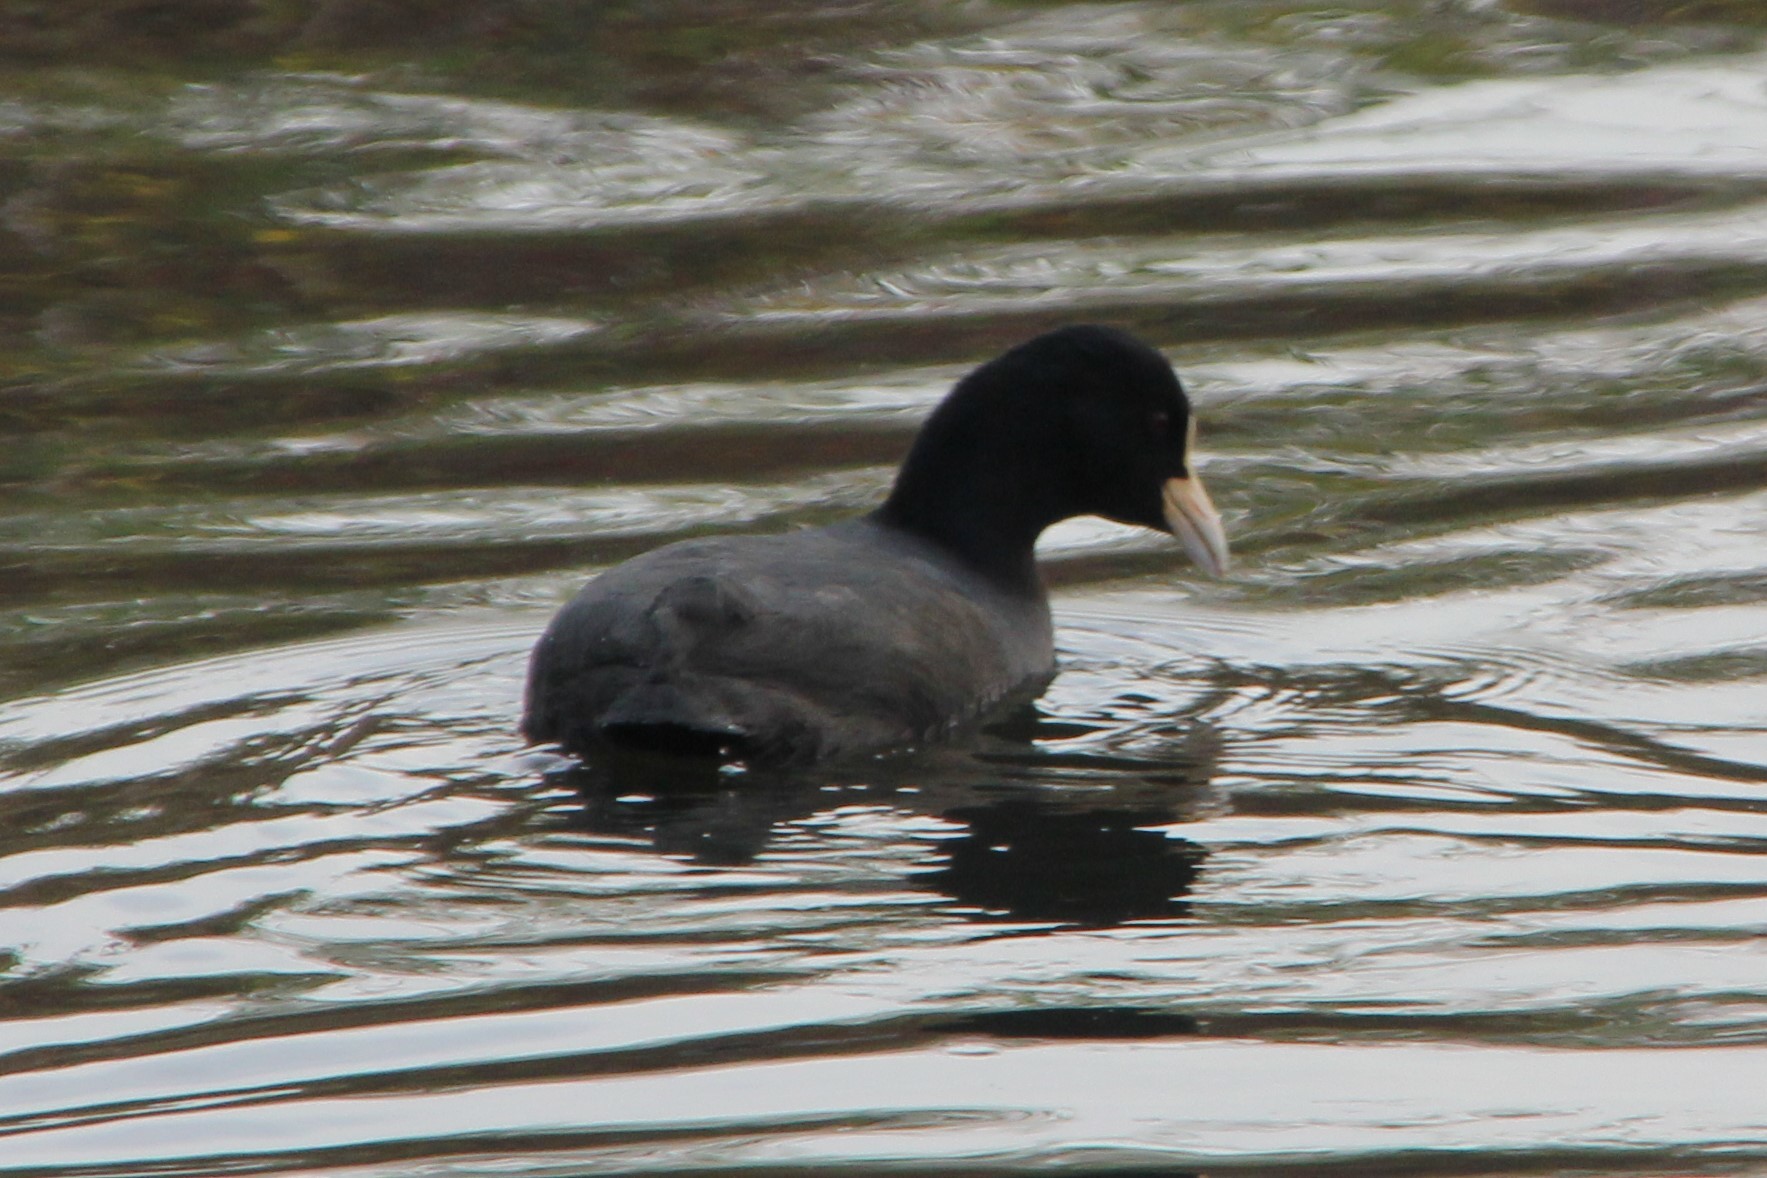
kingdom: Animalia
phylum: Chordata
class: Aves
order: Gruiformes
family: Rallidae
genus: Fulica
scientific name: Fulica atra
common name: Eurasian coot
